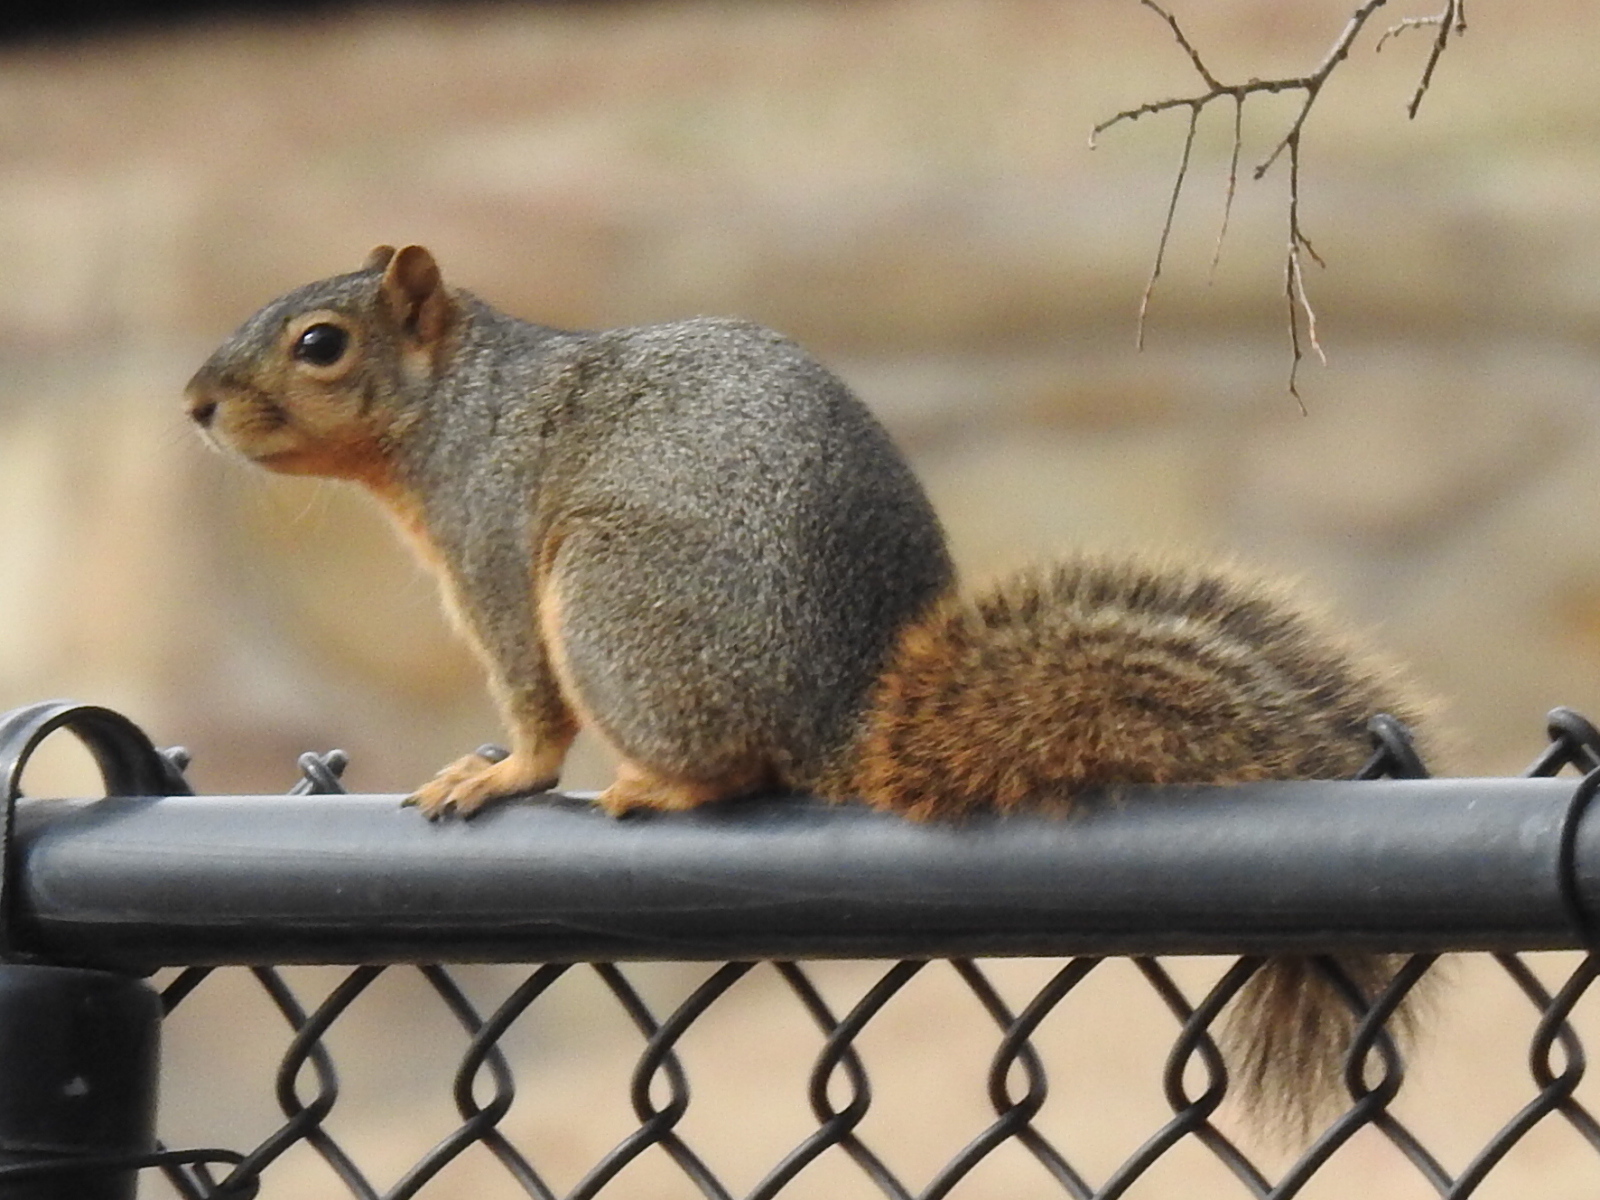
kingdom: Animalia
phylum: Chordata
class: Mammalia
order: Rodentia
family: Sciuridae
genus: Sciurus
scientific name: Sciurus niger
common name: Fox squirrel
